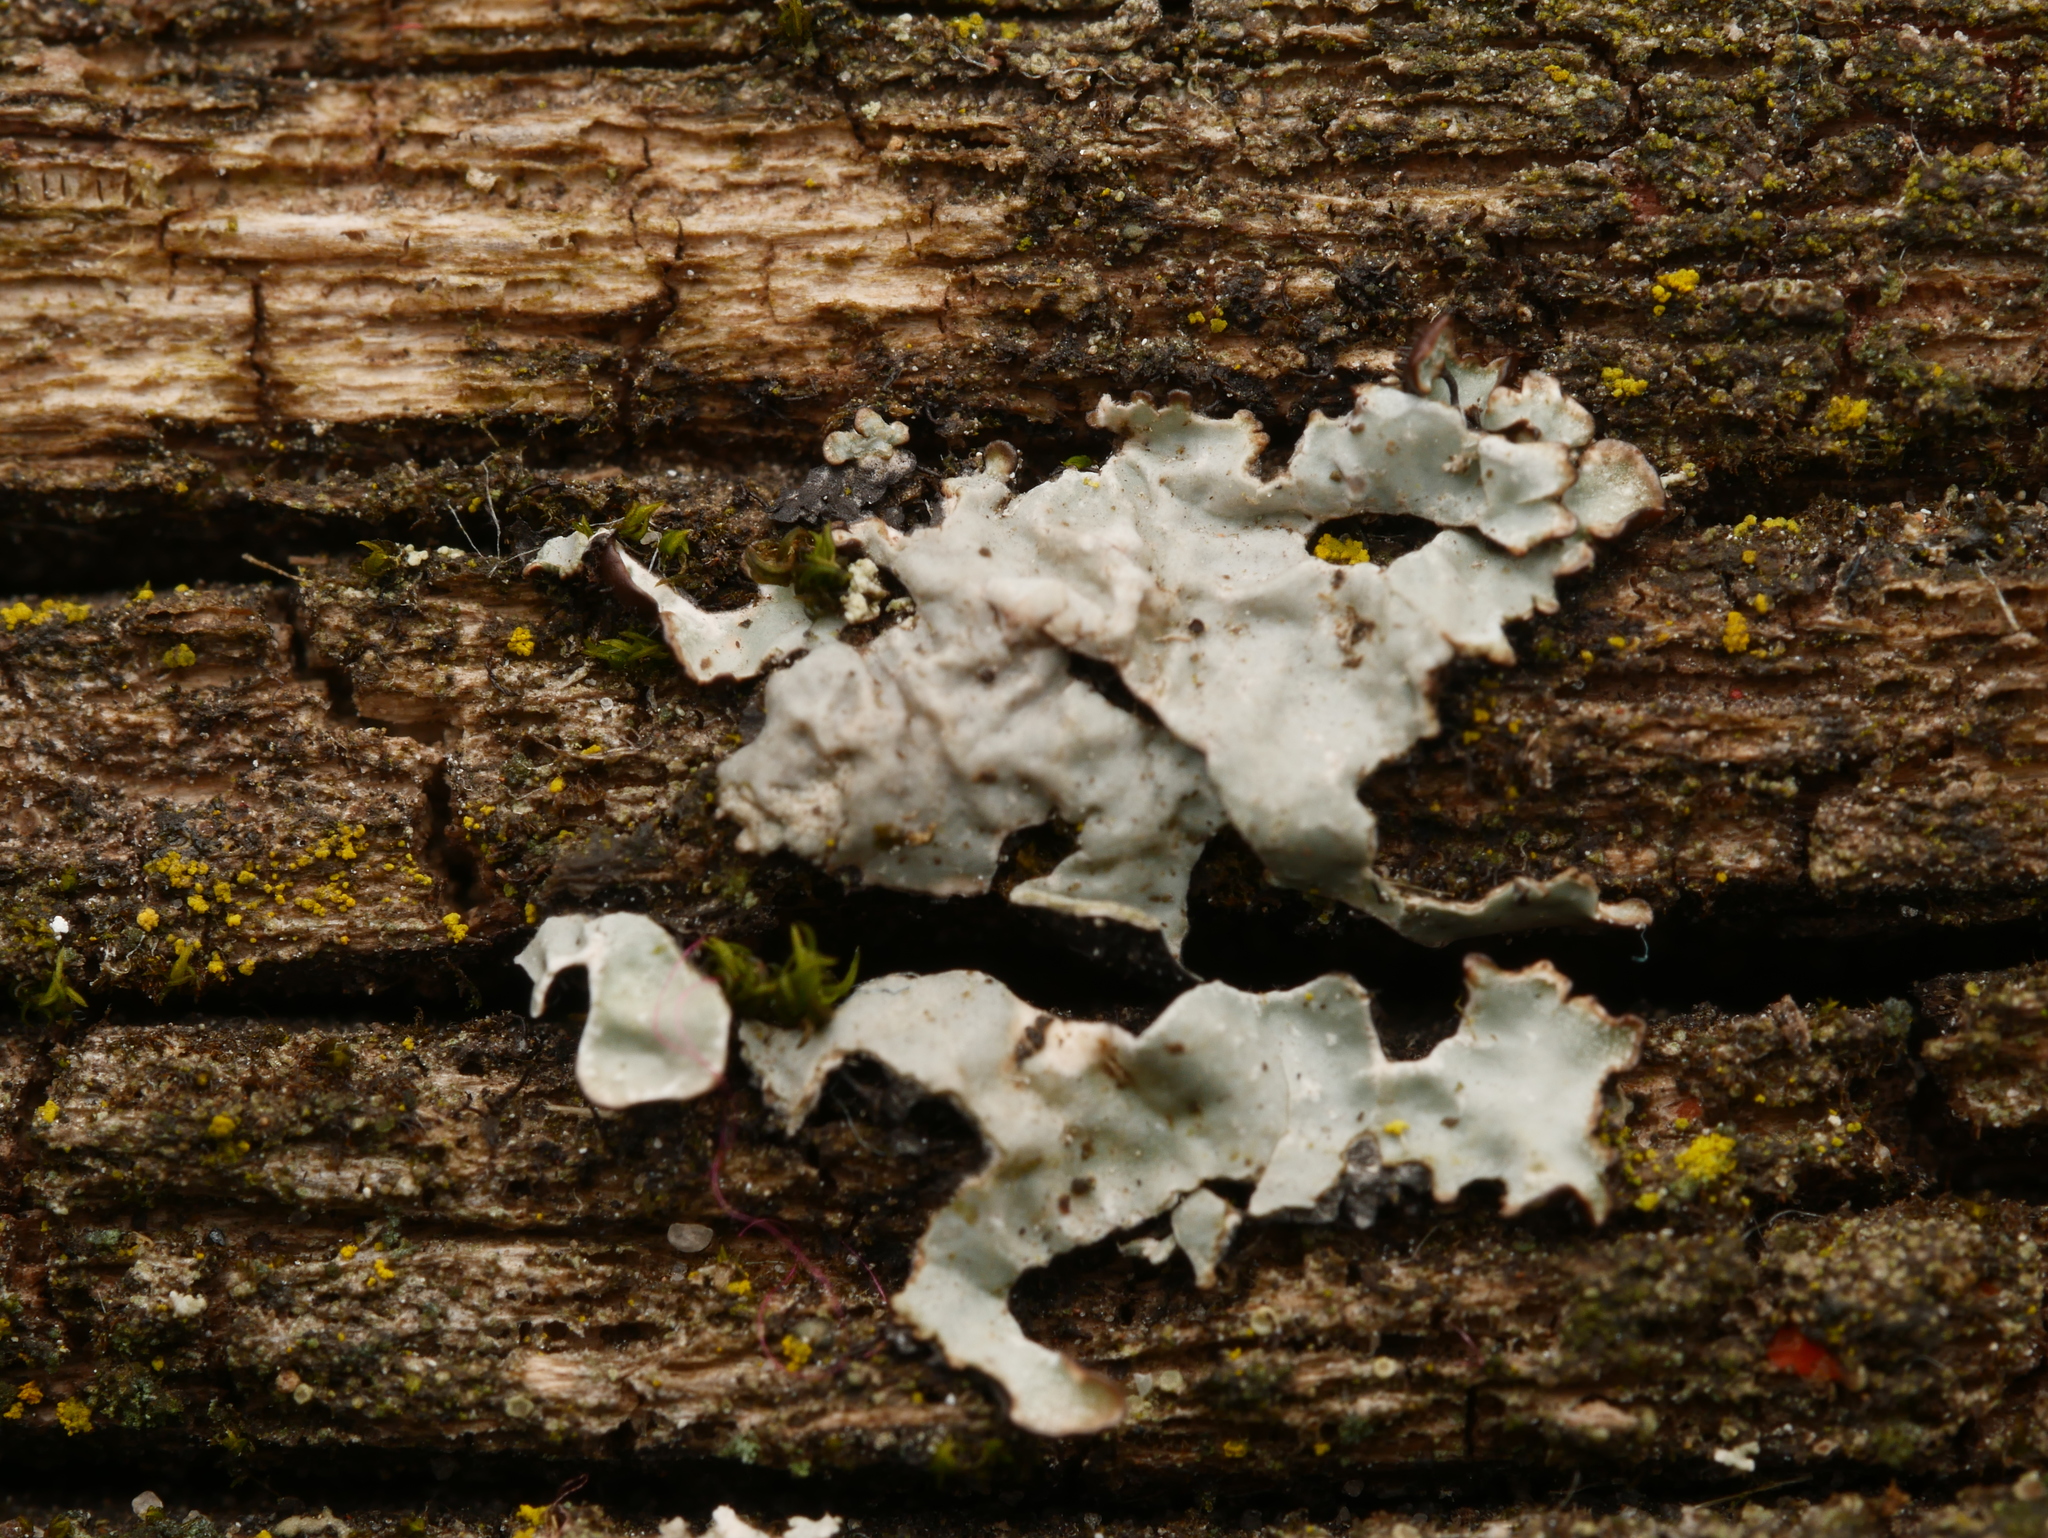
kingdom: Fungi
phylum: Ascomycota
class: Lecanoromycetes
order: Lecanorales
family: Parmeliaceae
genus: Parmelia
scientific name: Parmelia sulcata
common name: Netted shield lichen
